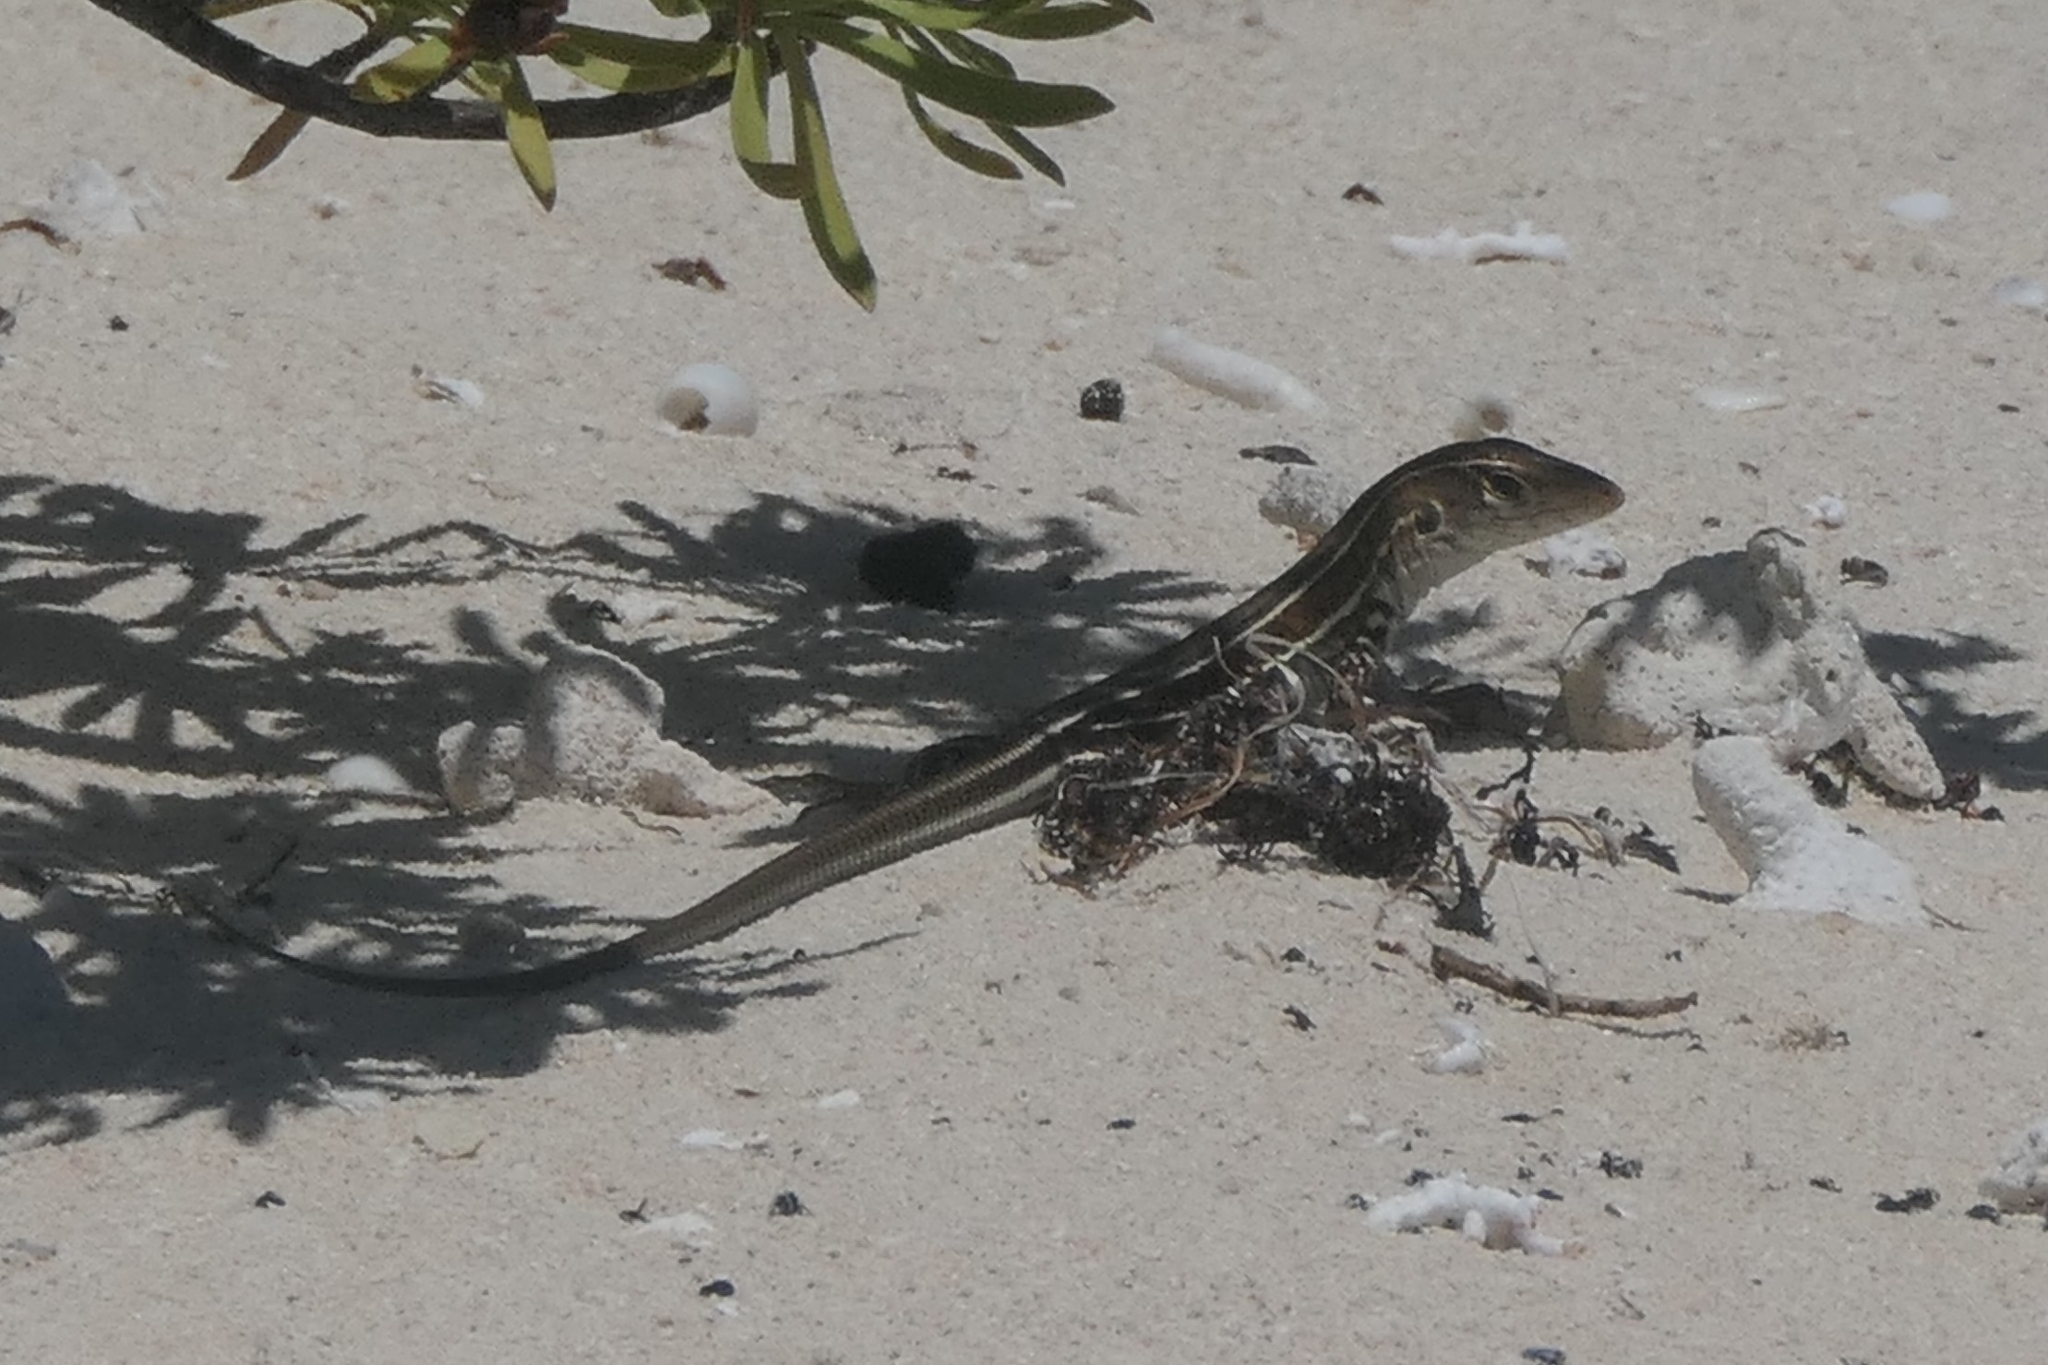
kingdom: Animalia
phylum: Chordata
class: Squamata
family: Teiidae
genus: Pholidoscelis
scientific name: Pholidoscelis griswoldi
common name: Antiguan ameiva
